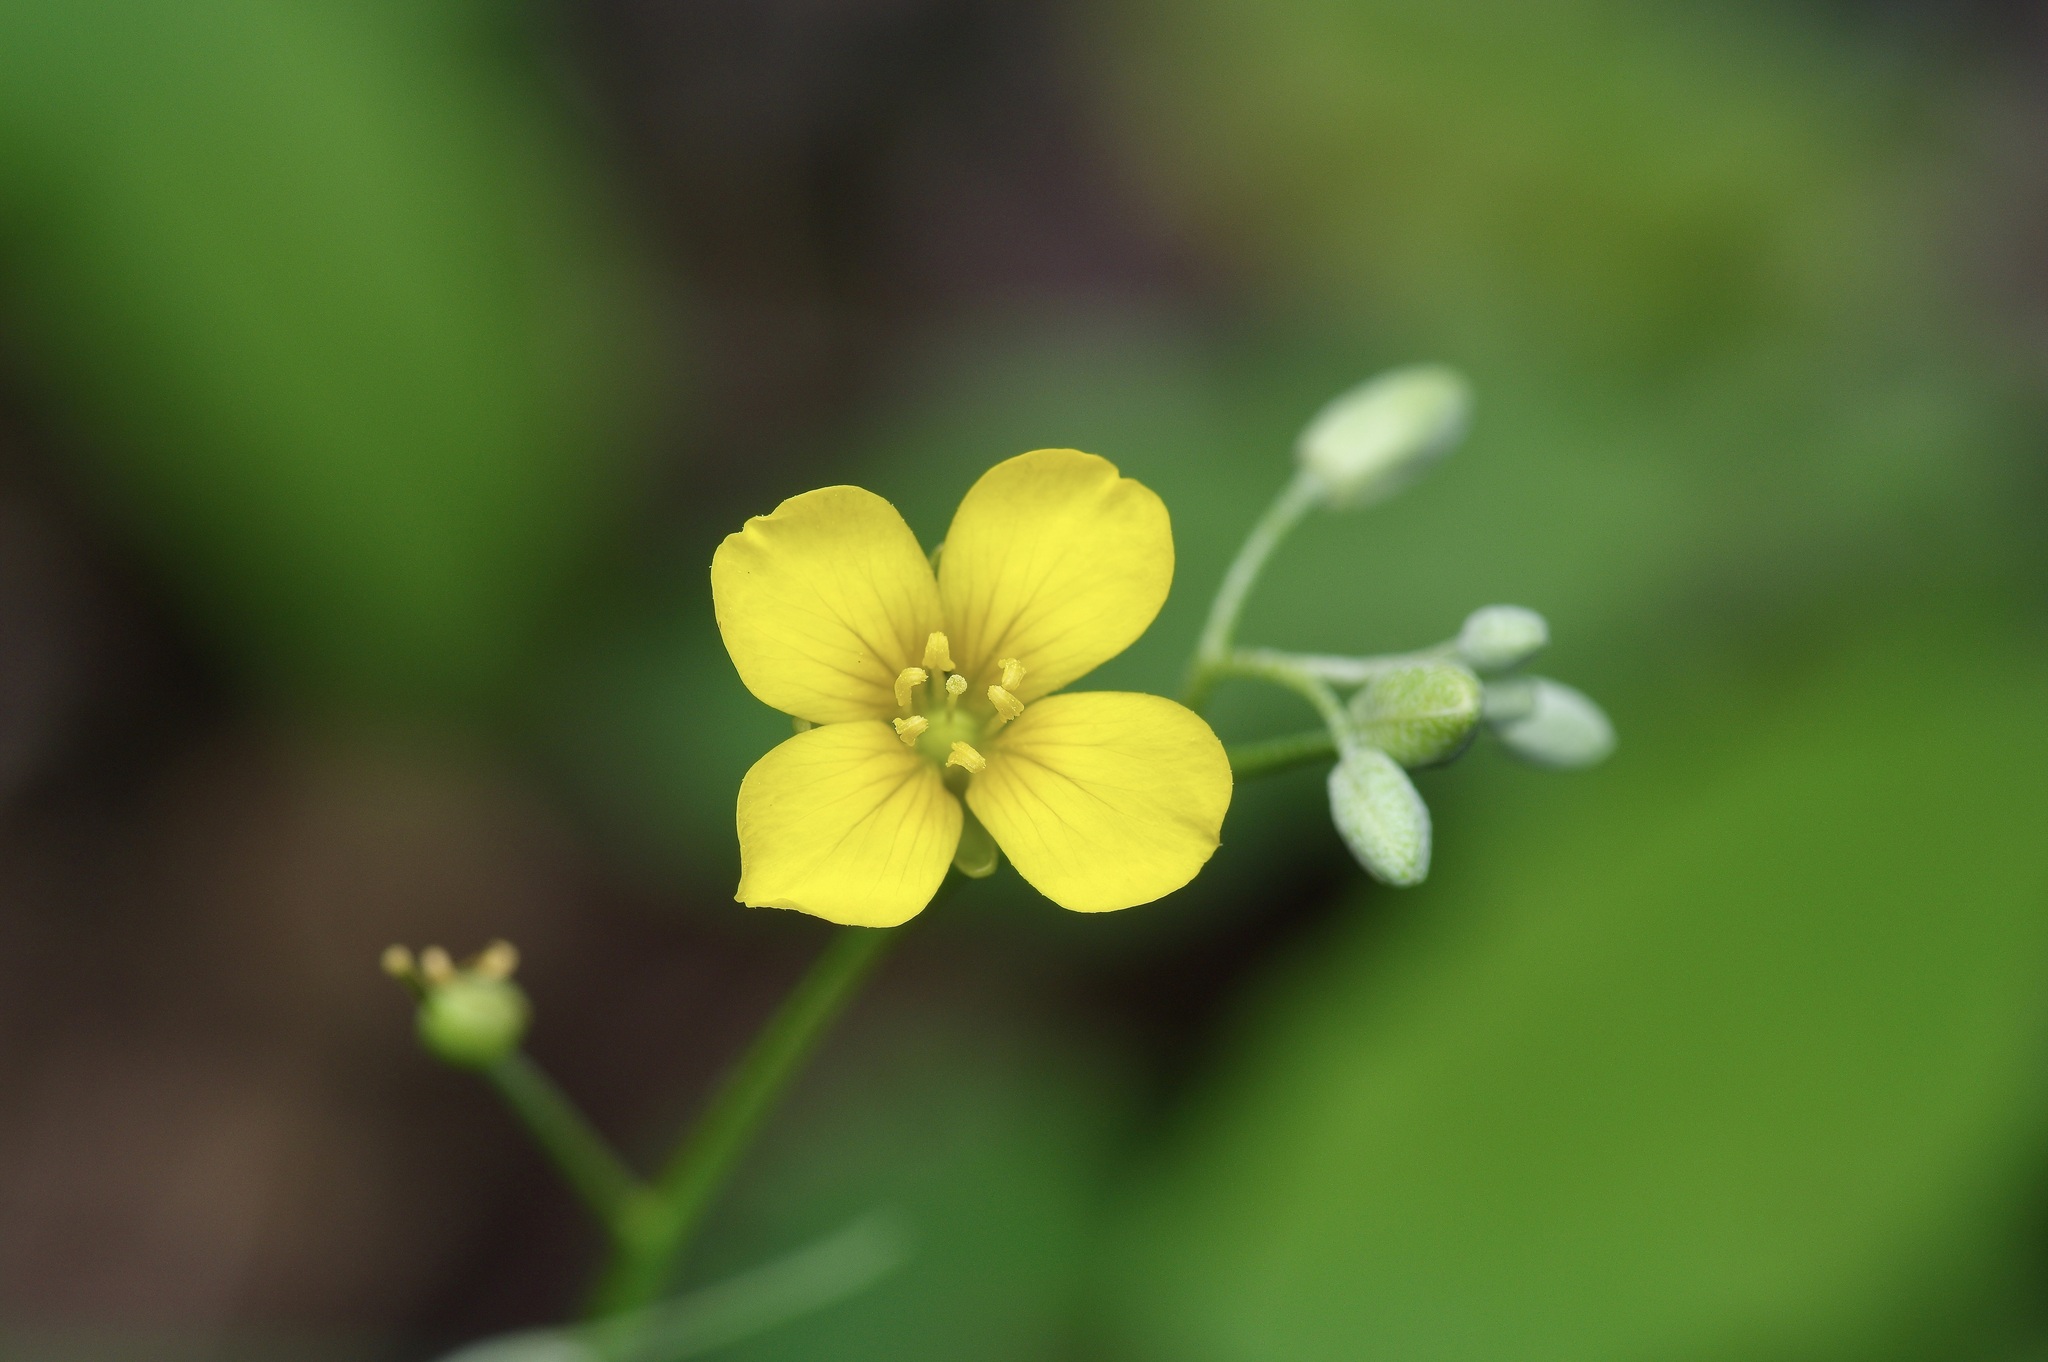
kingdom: Plantae
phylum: Tracheophyta
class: Magnoliopsida
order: Brassicales
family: Brassicaceae
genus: Physaria
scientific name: Physaria gracilis
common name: Spreading bladderpod
